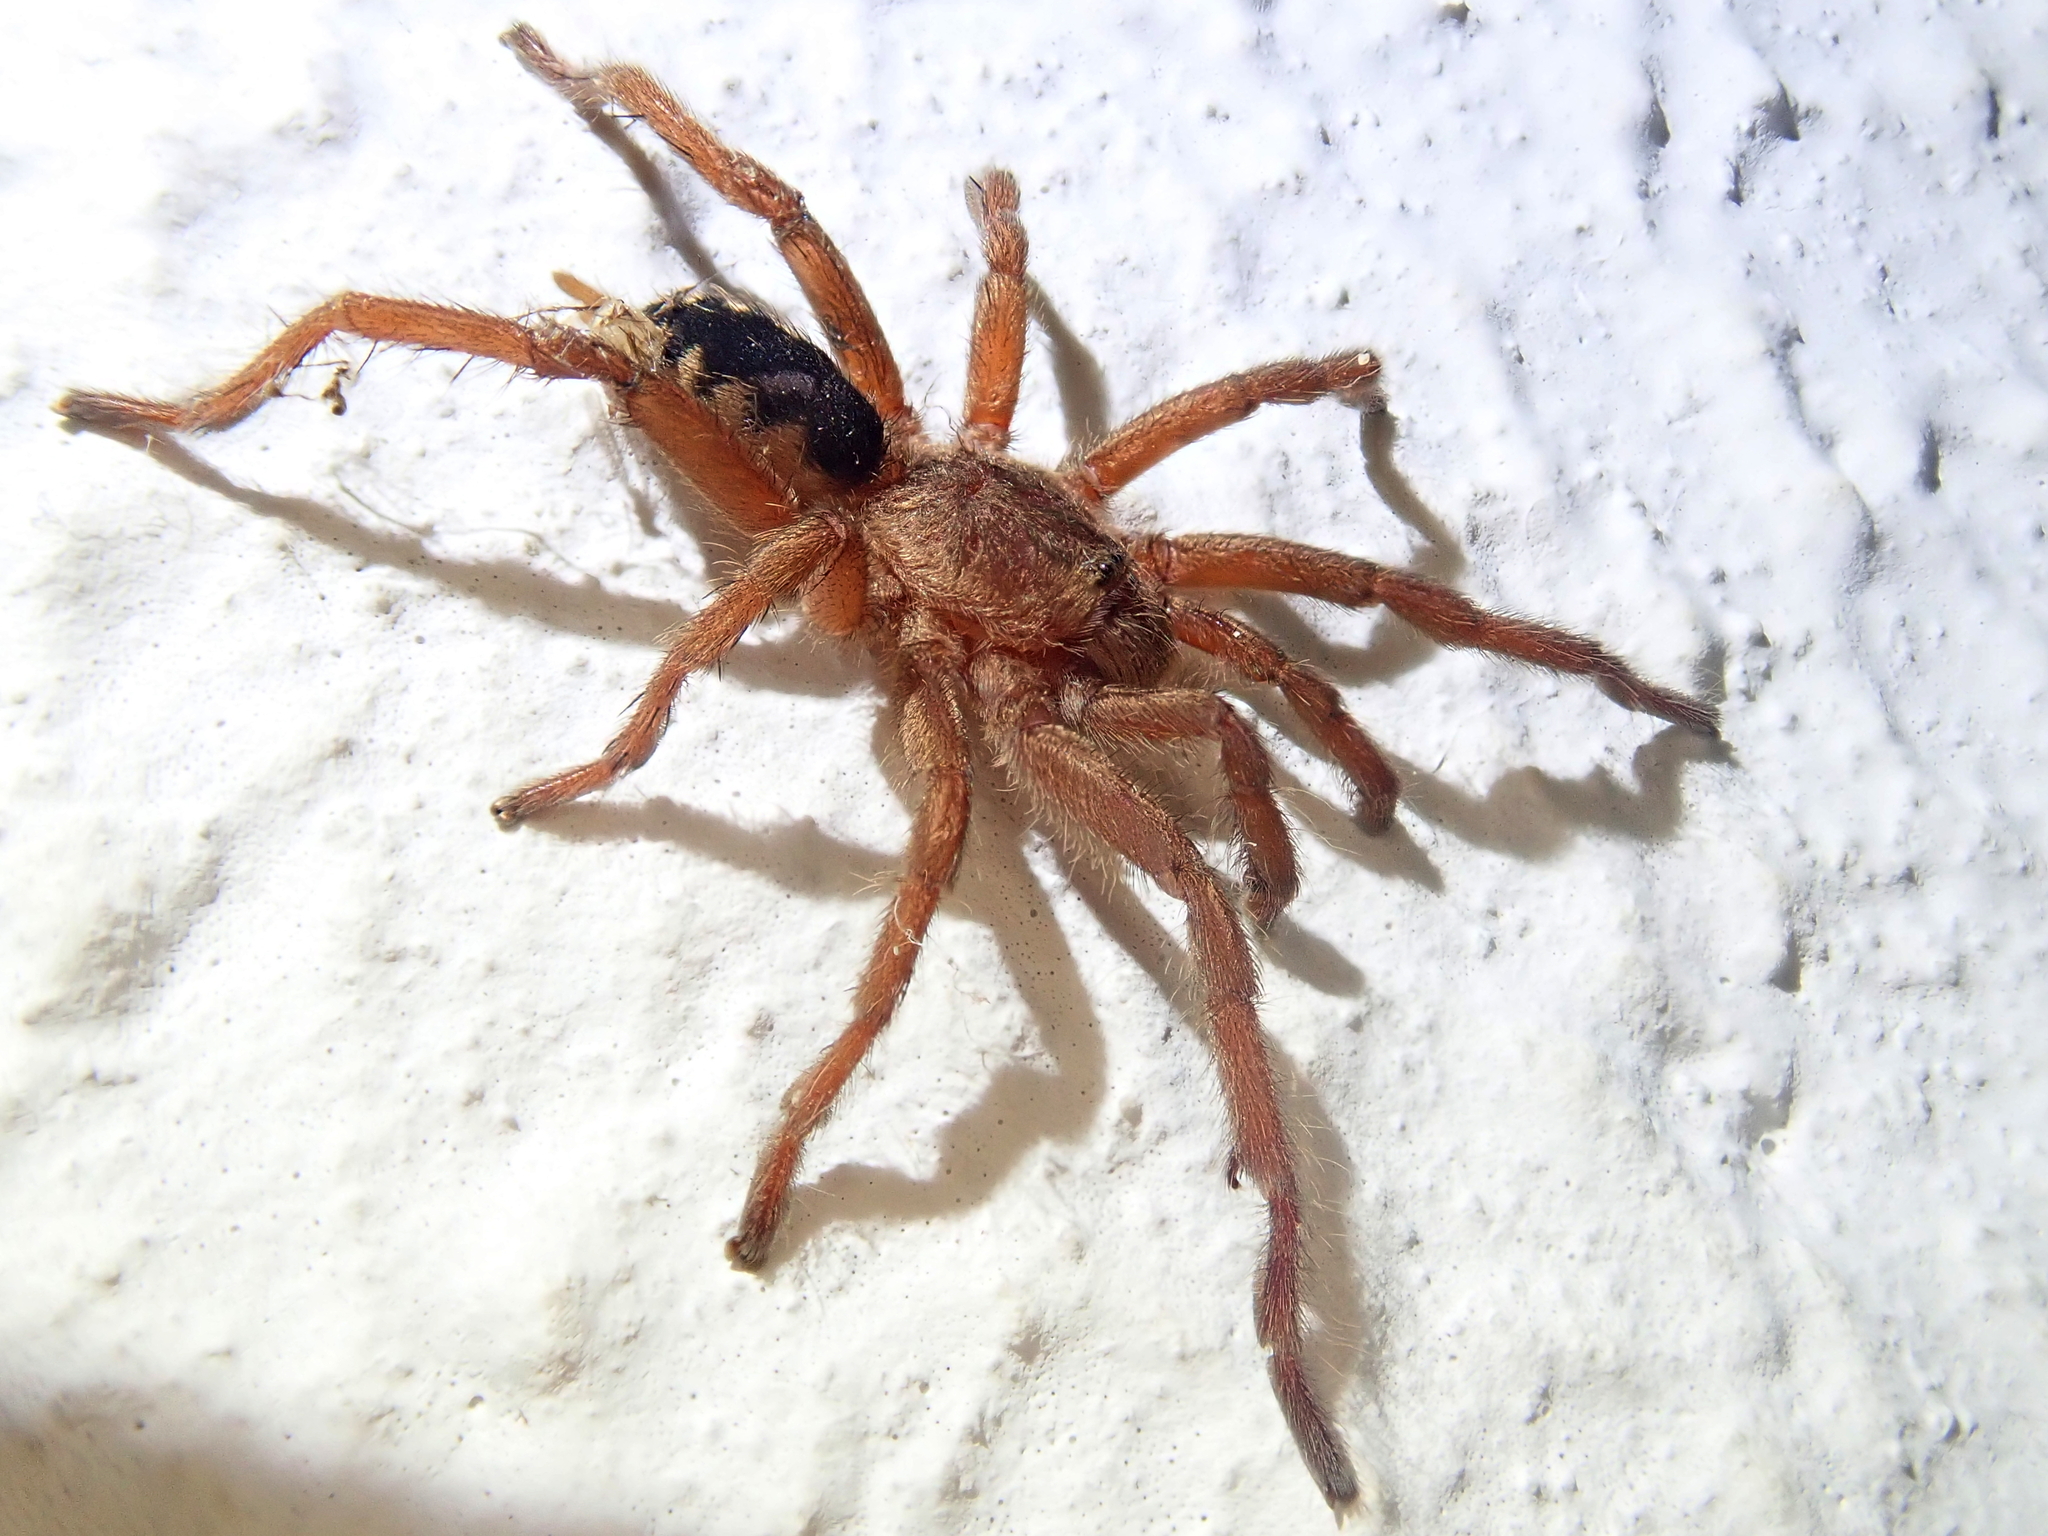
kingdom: Animalia
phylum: Arthropoda
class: Arachnida
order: Araneae
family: Theraphosidae
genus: Guyruita
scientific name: Guyruita cerrado
